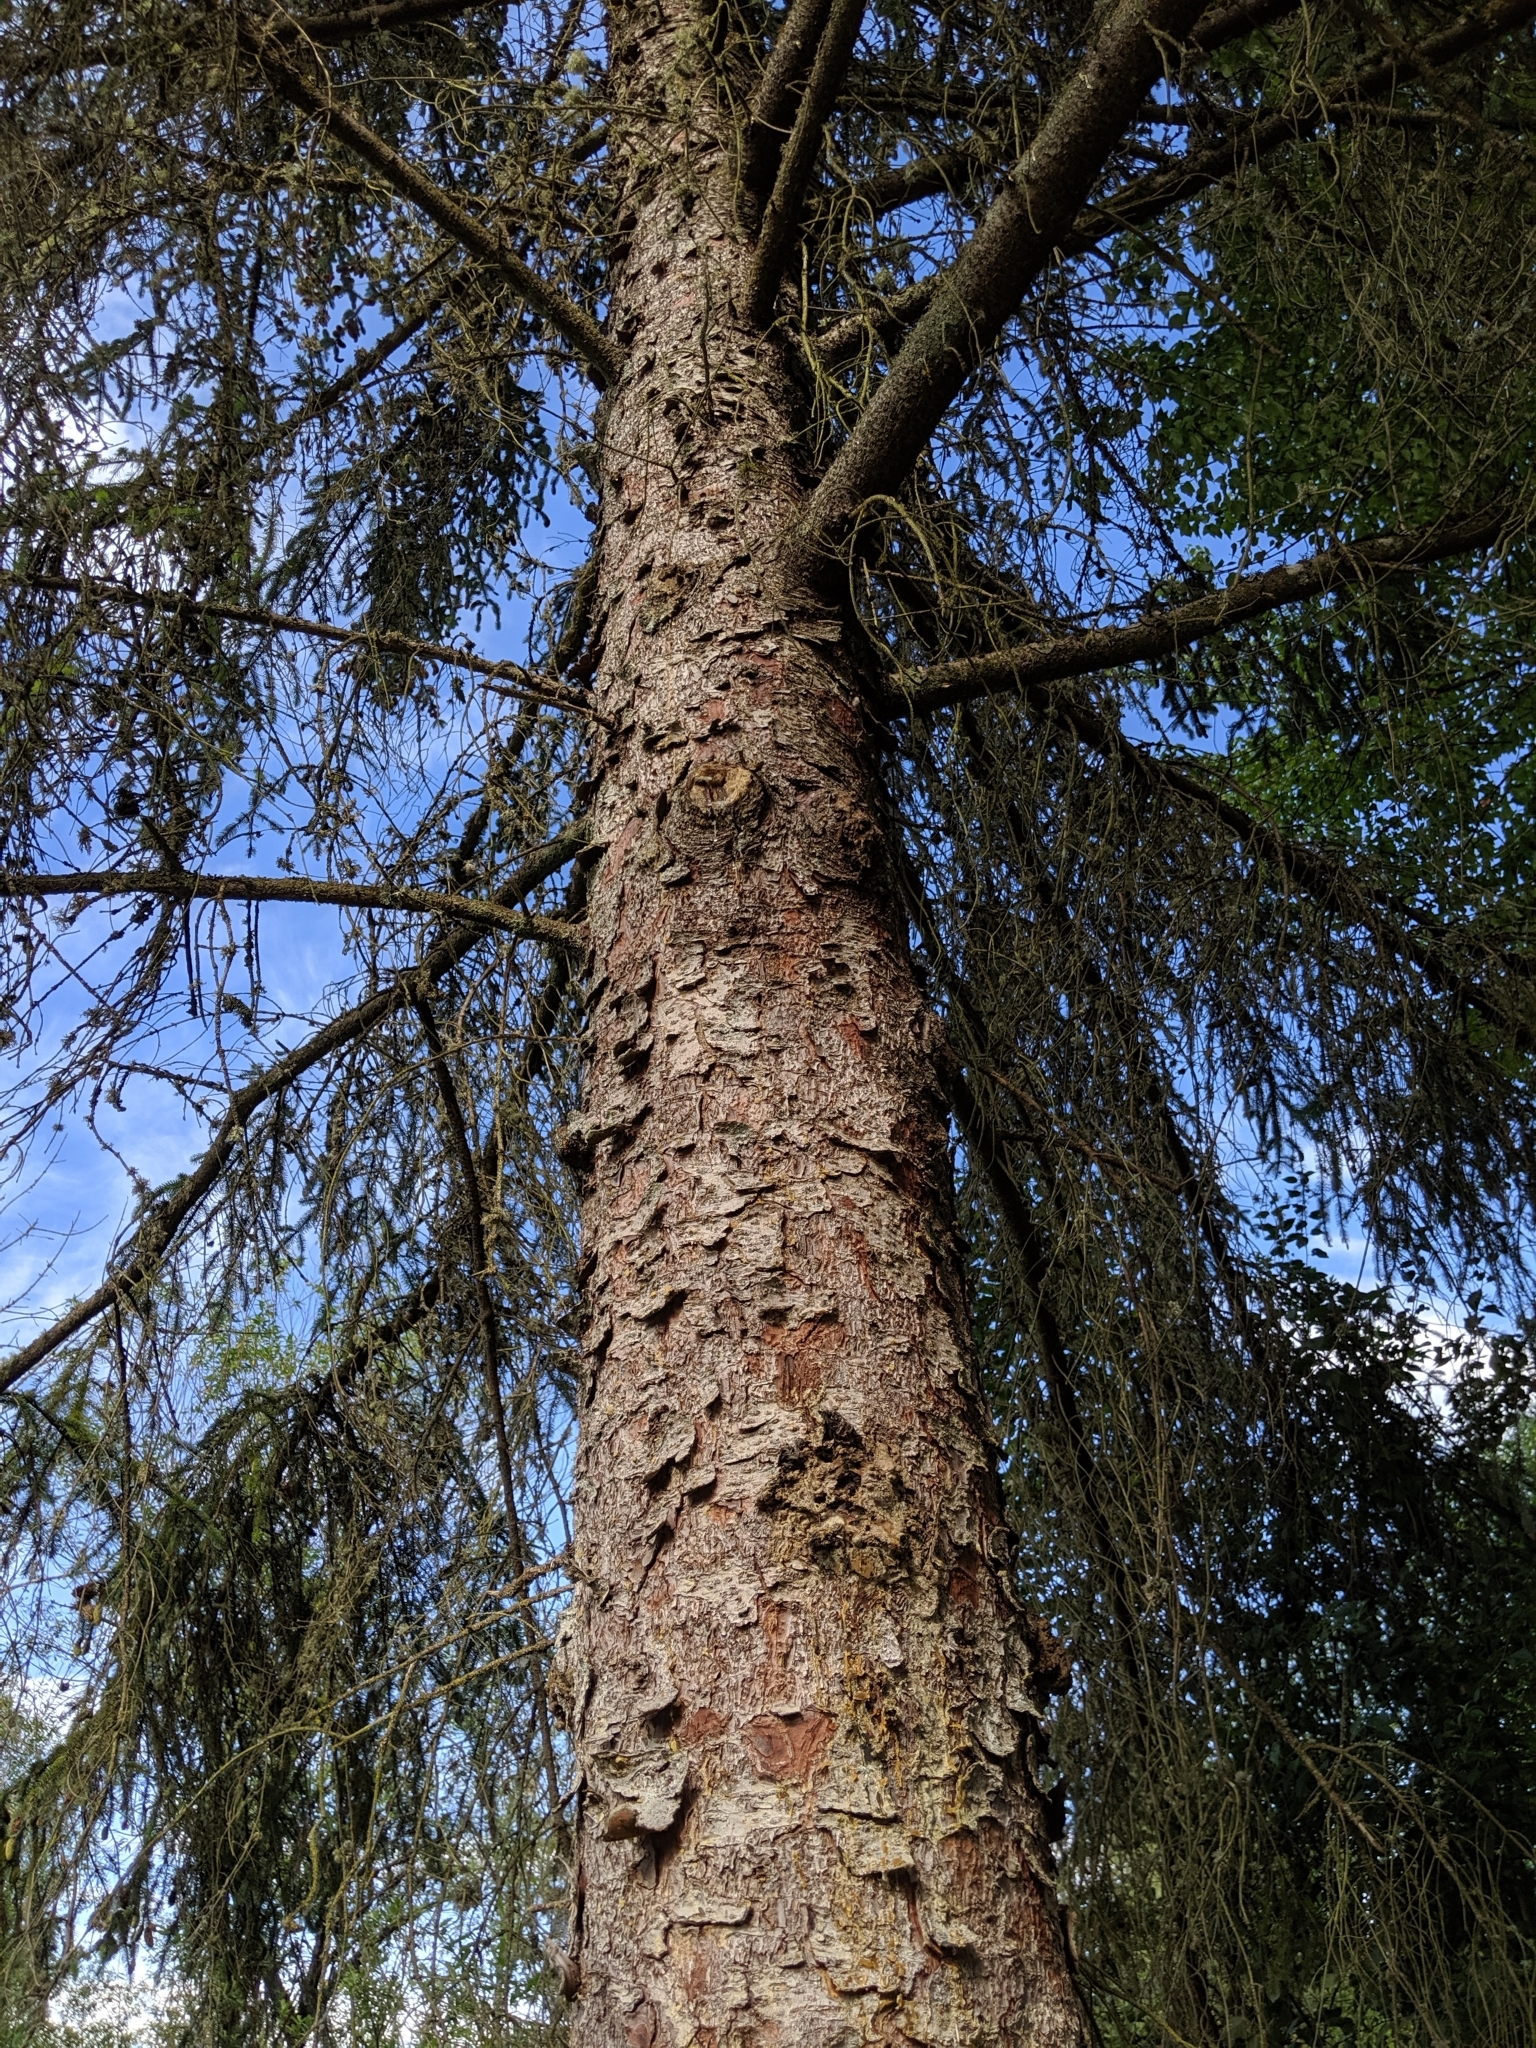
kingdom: Plantae
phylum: Tracheophyta
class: Pinopsida
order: Pinales
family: Pinaceae
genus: Picea
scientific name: Picea sitchensis
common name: Sitka spruce
